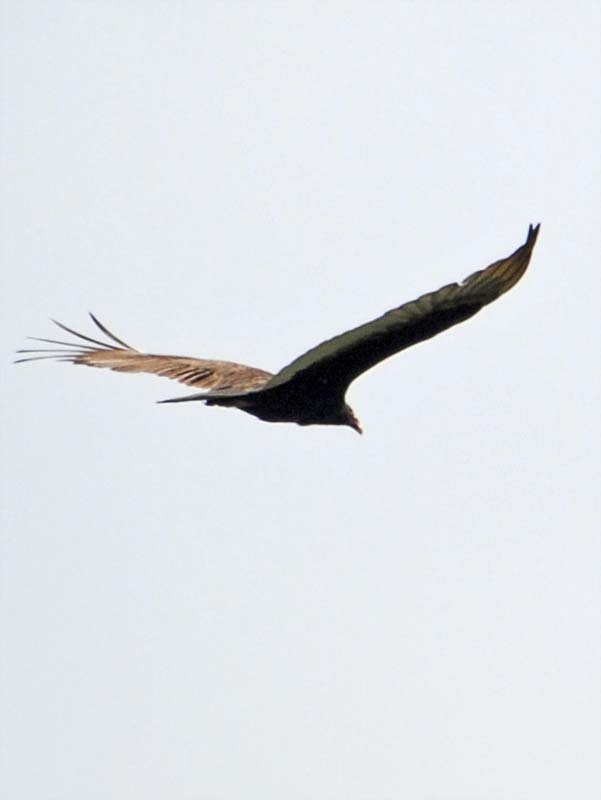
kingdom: Animalia
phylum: Chordata
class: Aves
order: Accipitriformes
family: Cathartidae
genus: Cathartes
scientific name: Cathartes aura
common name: Turkey vulture
